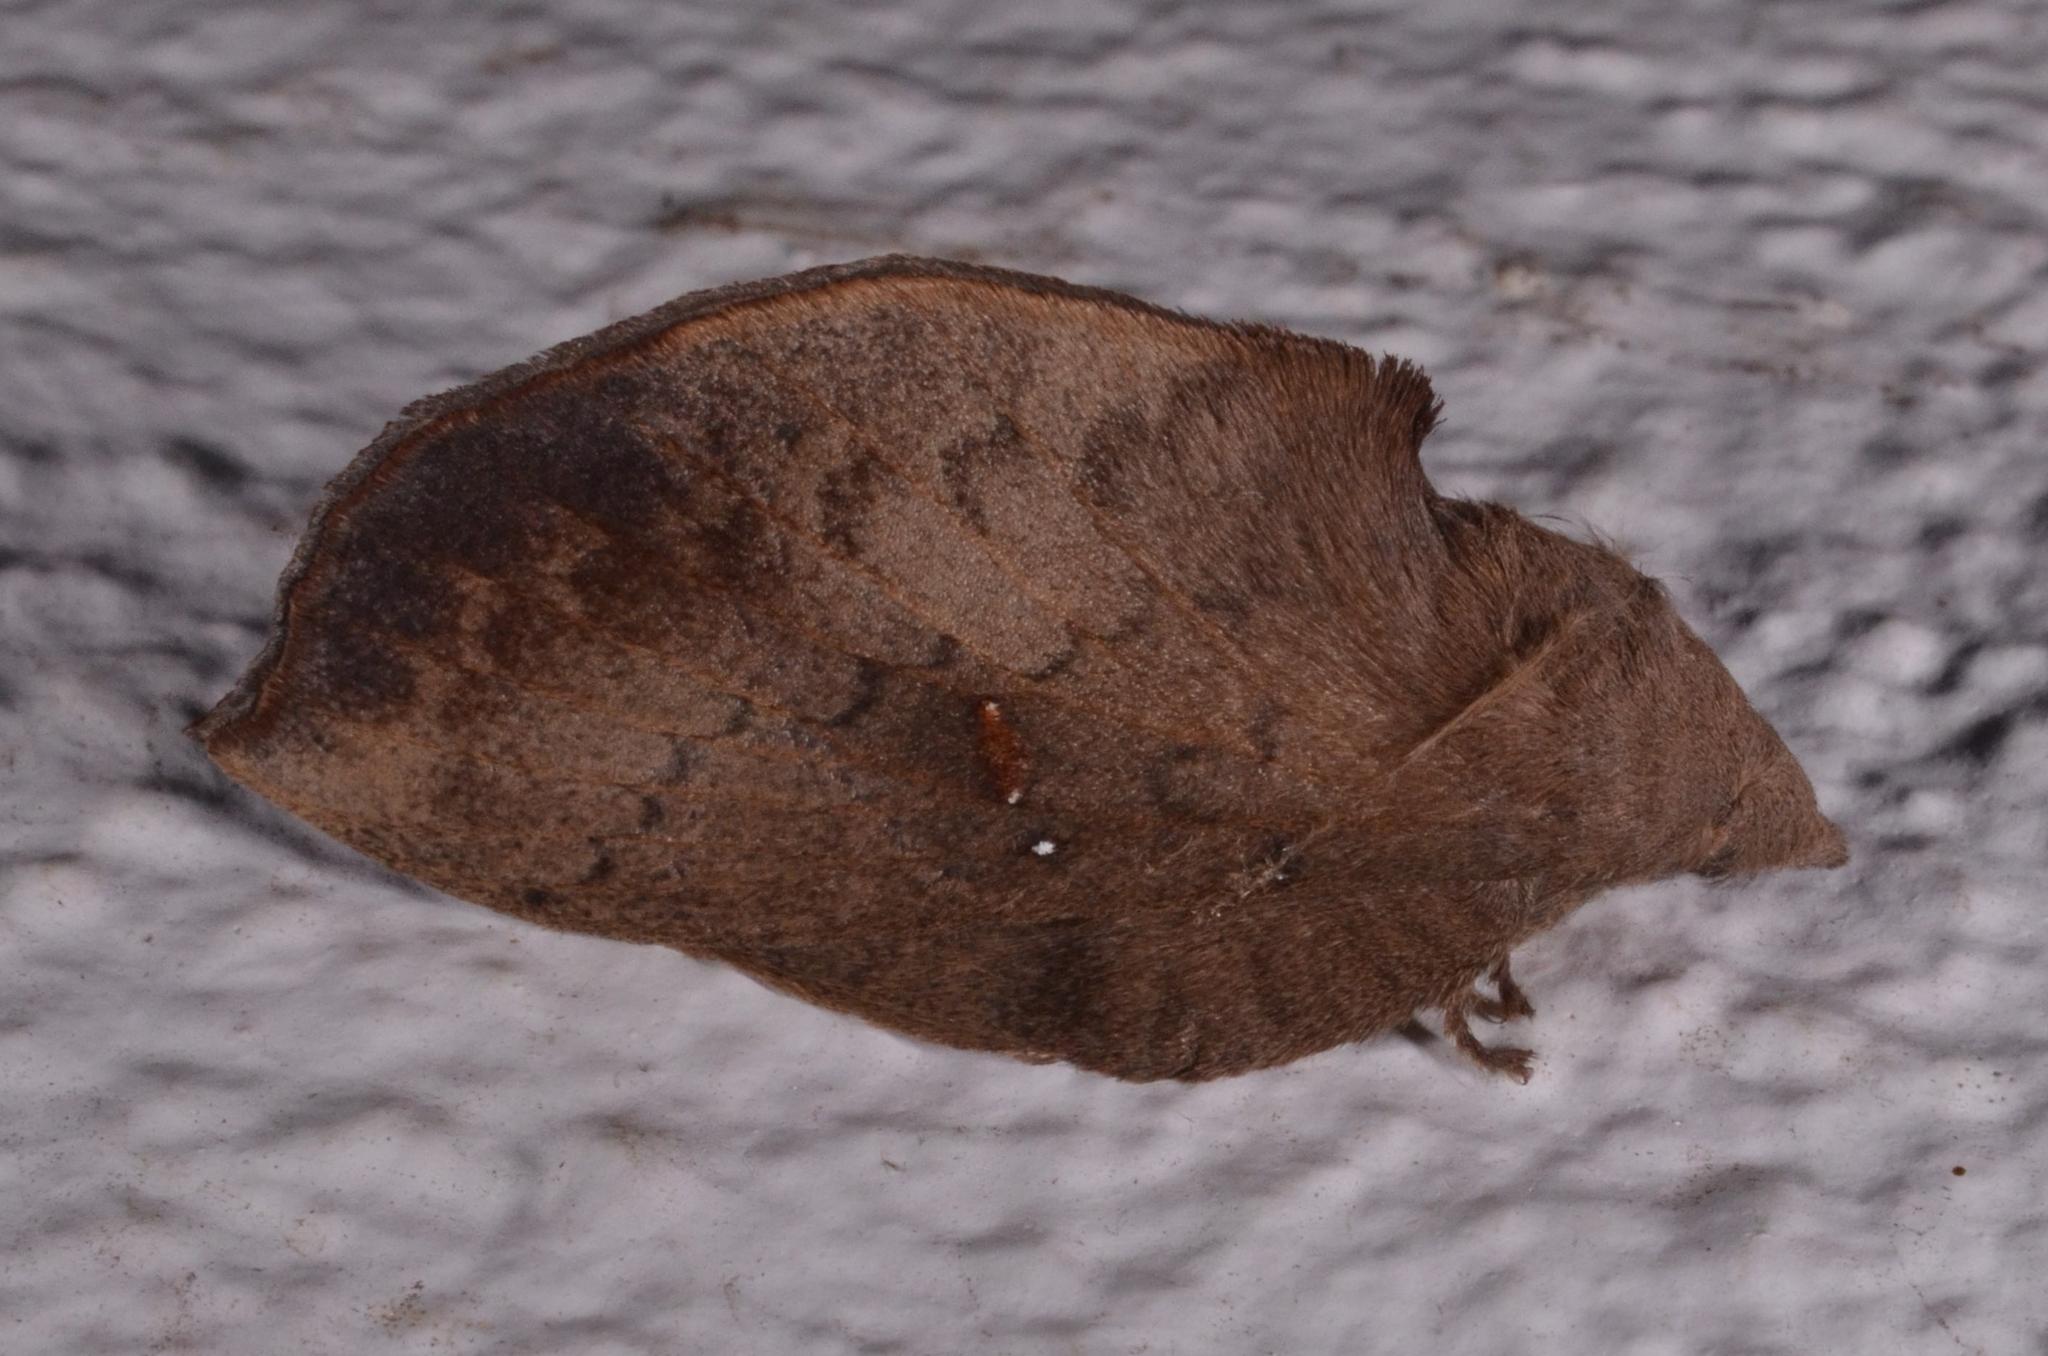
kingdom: Animalia
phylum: Arthropoda
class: Insecta
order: Lepidoptera
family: Lasiocampidae
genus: Euthrix
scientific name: Euthrix inobtrusa
